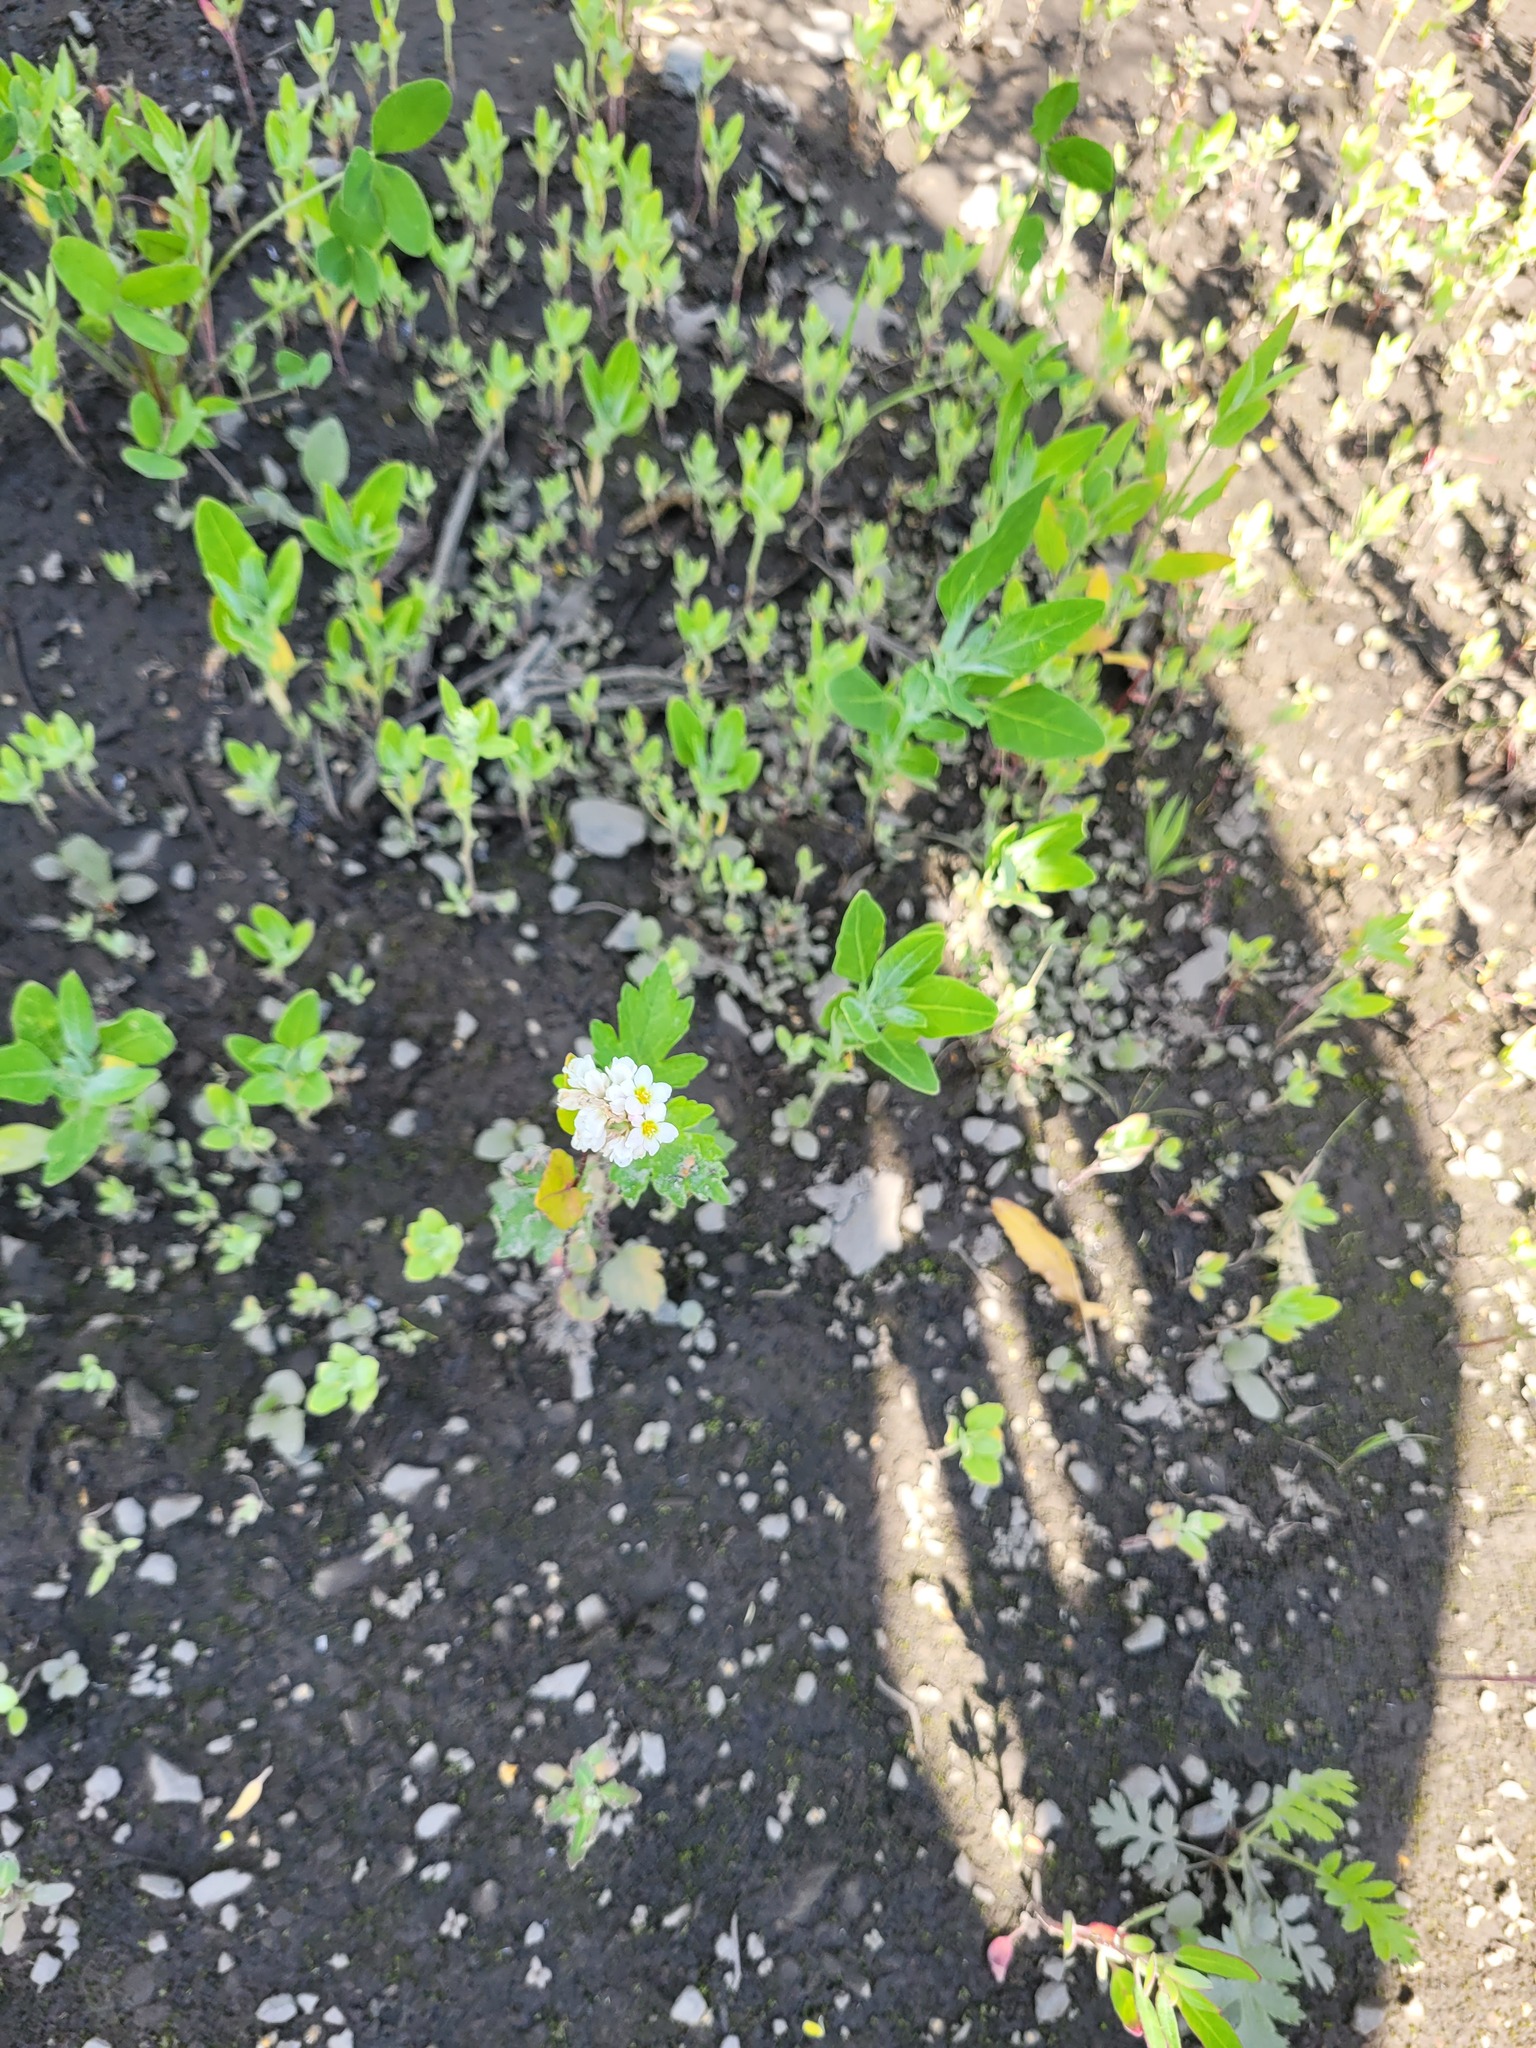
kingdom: Plantae
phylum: Tracheophyta
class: Magnoliopsida
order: Caryophyllales
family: Polygonaceae
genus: Fagopyrum
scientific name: Fagopyrum esculentum
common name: Buckwheat
